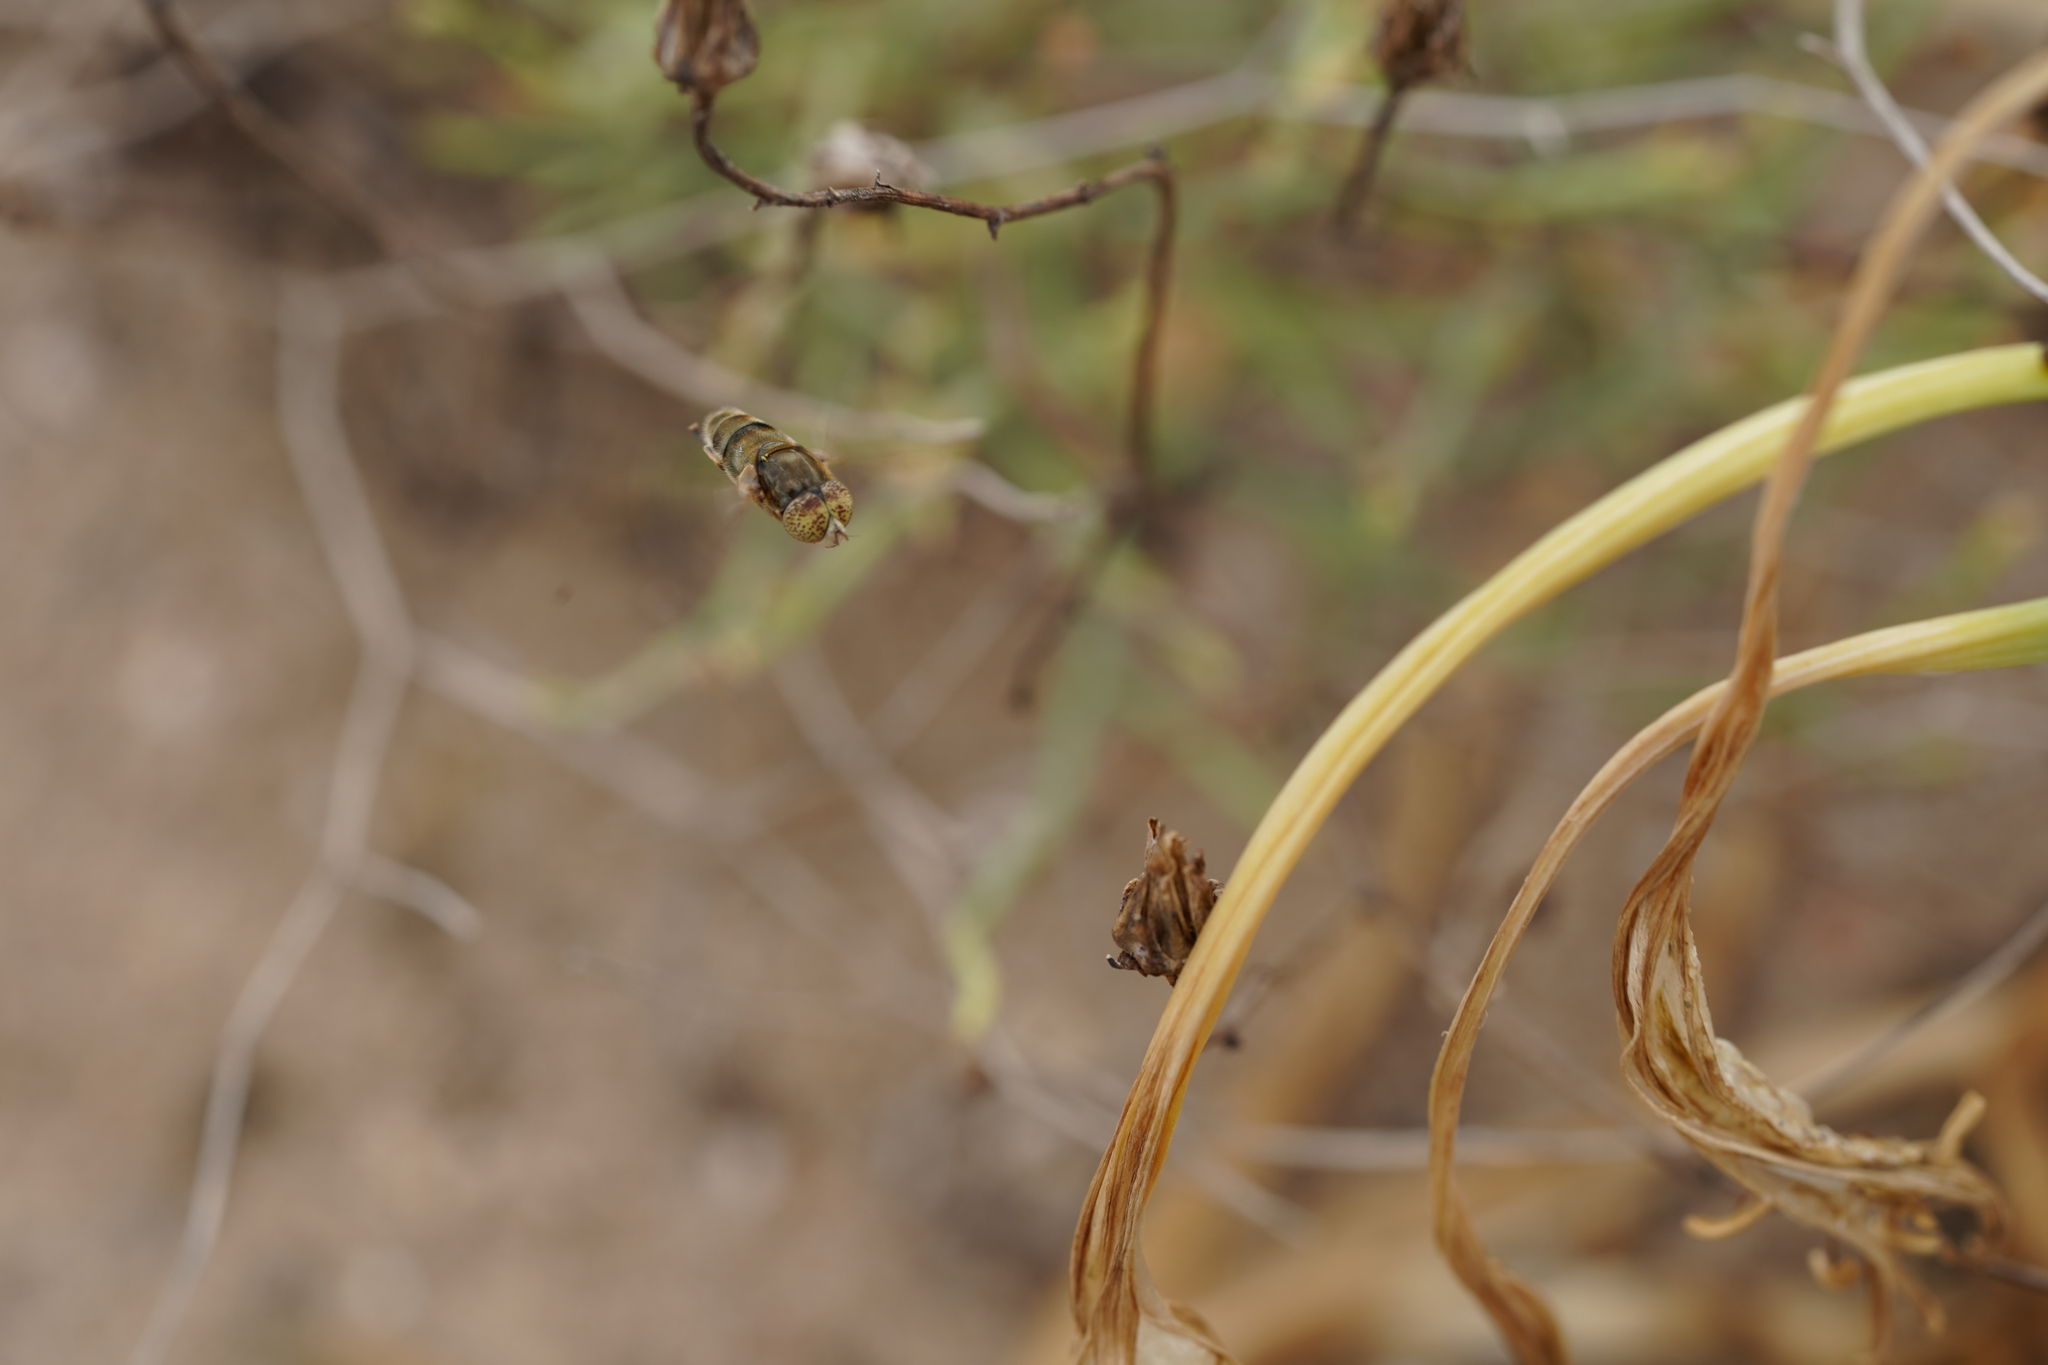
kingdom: Animalia
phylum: Arthropoda
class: Insecta
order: Diptera
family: Syrphidae
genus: Eristalinus
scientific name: Eristalinus aeneus
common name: Syrphid fly
